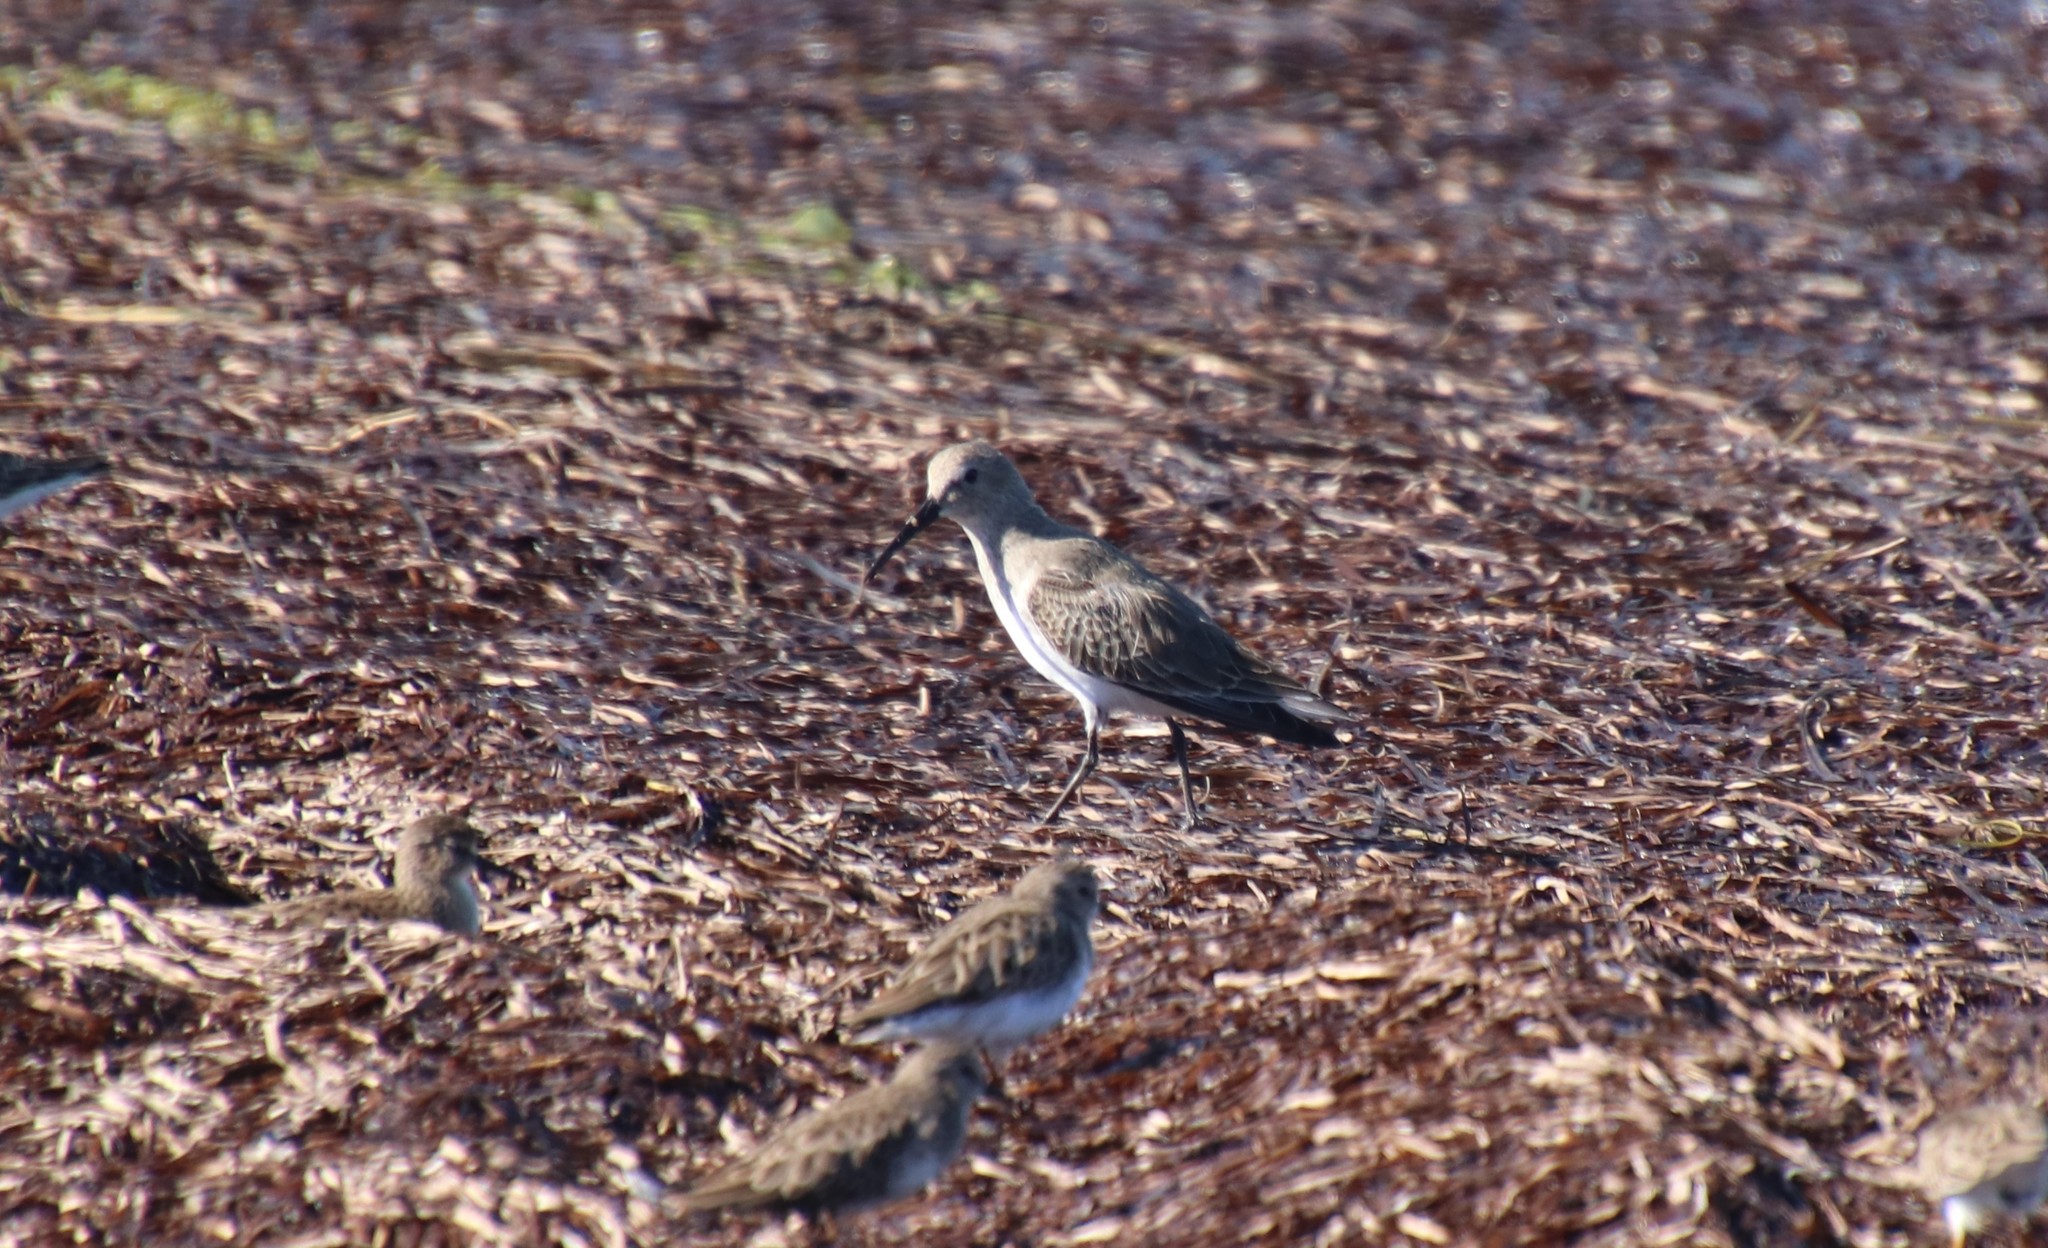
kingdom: Animalia
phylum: Chordata
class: Aves
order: Charadriiformes
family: Scolopacidae
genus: Calidris
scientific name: Calidris alpina
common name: Dunlin
